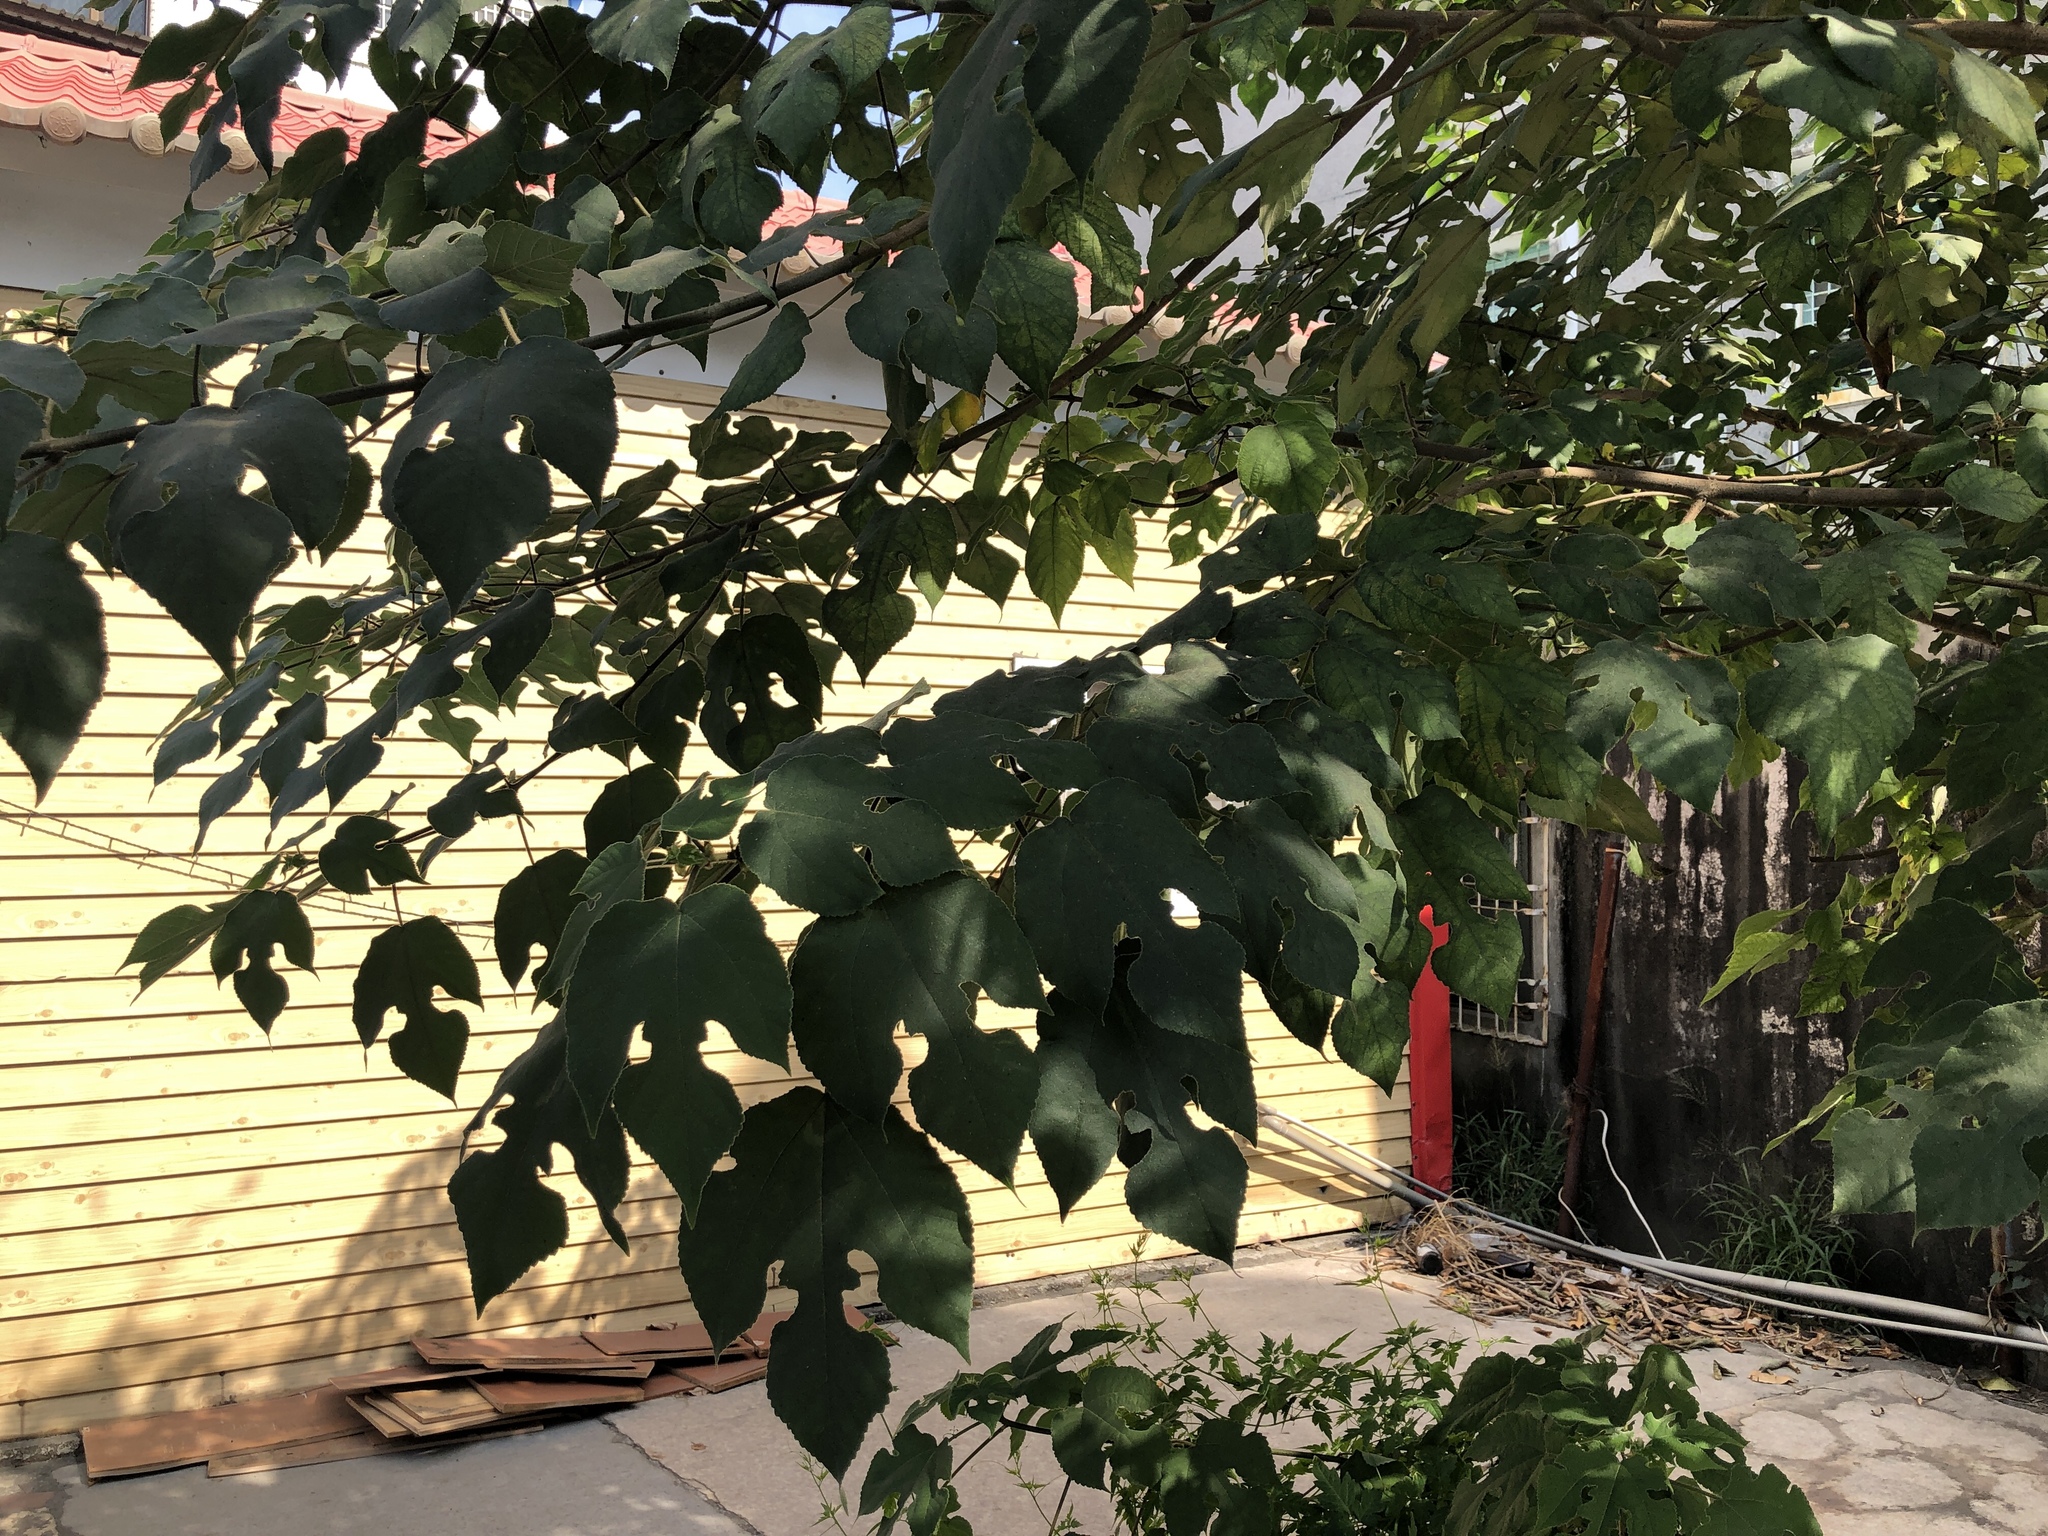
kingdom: Plantae
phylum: Tracheophyta
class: Magnoliopsida
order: Rosales
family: Moraceae
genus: Broussonetia
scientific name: Broussonetia papyrifera
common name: Paper mulberry
